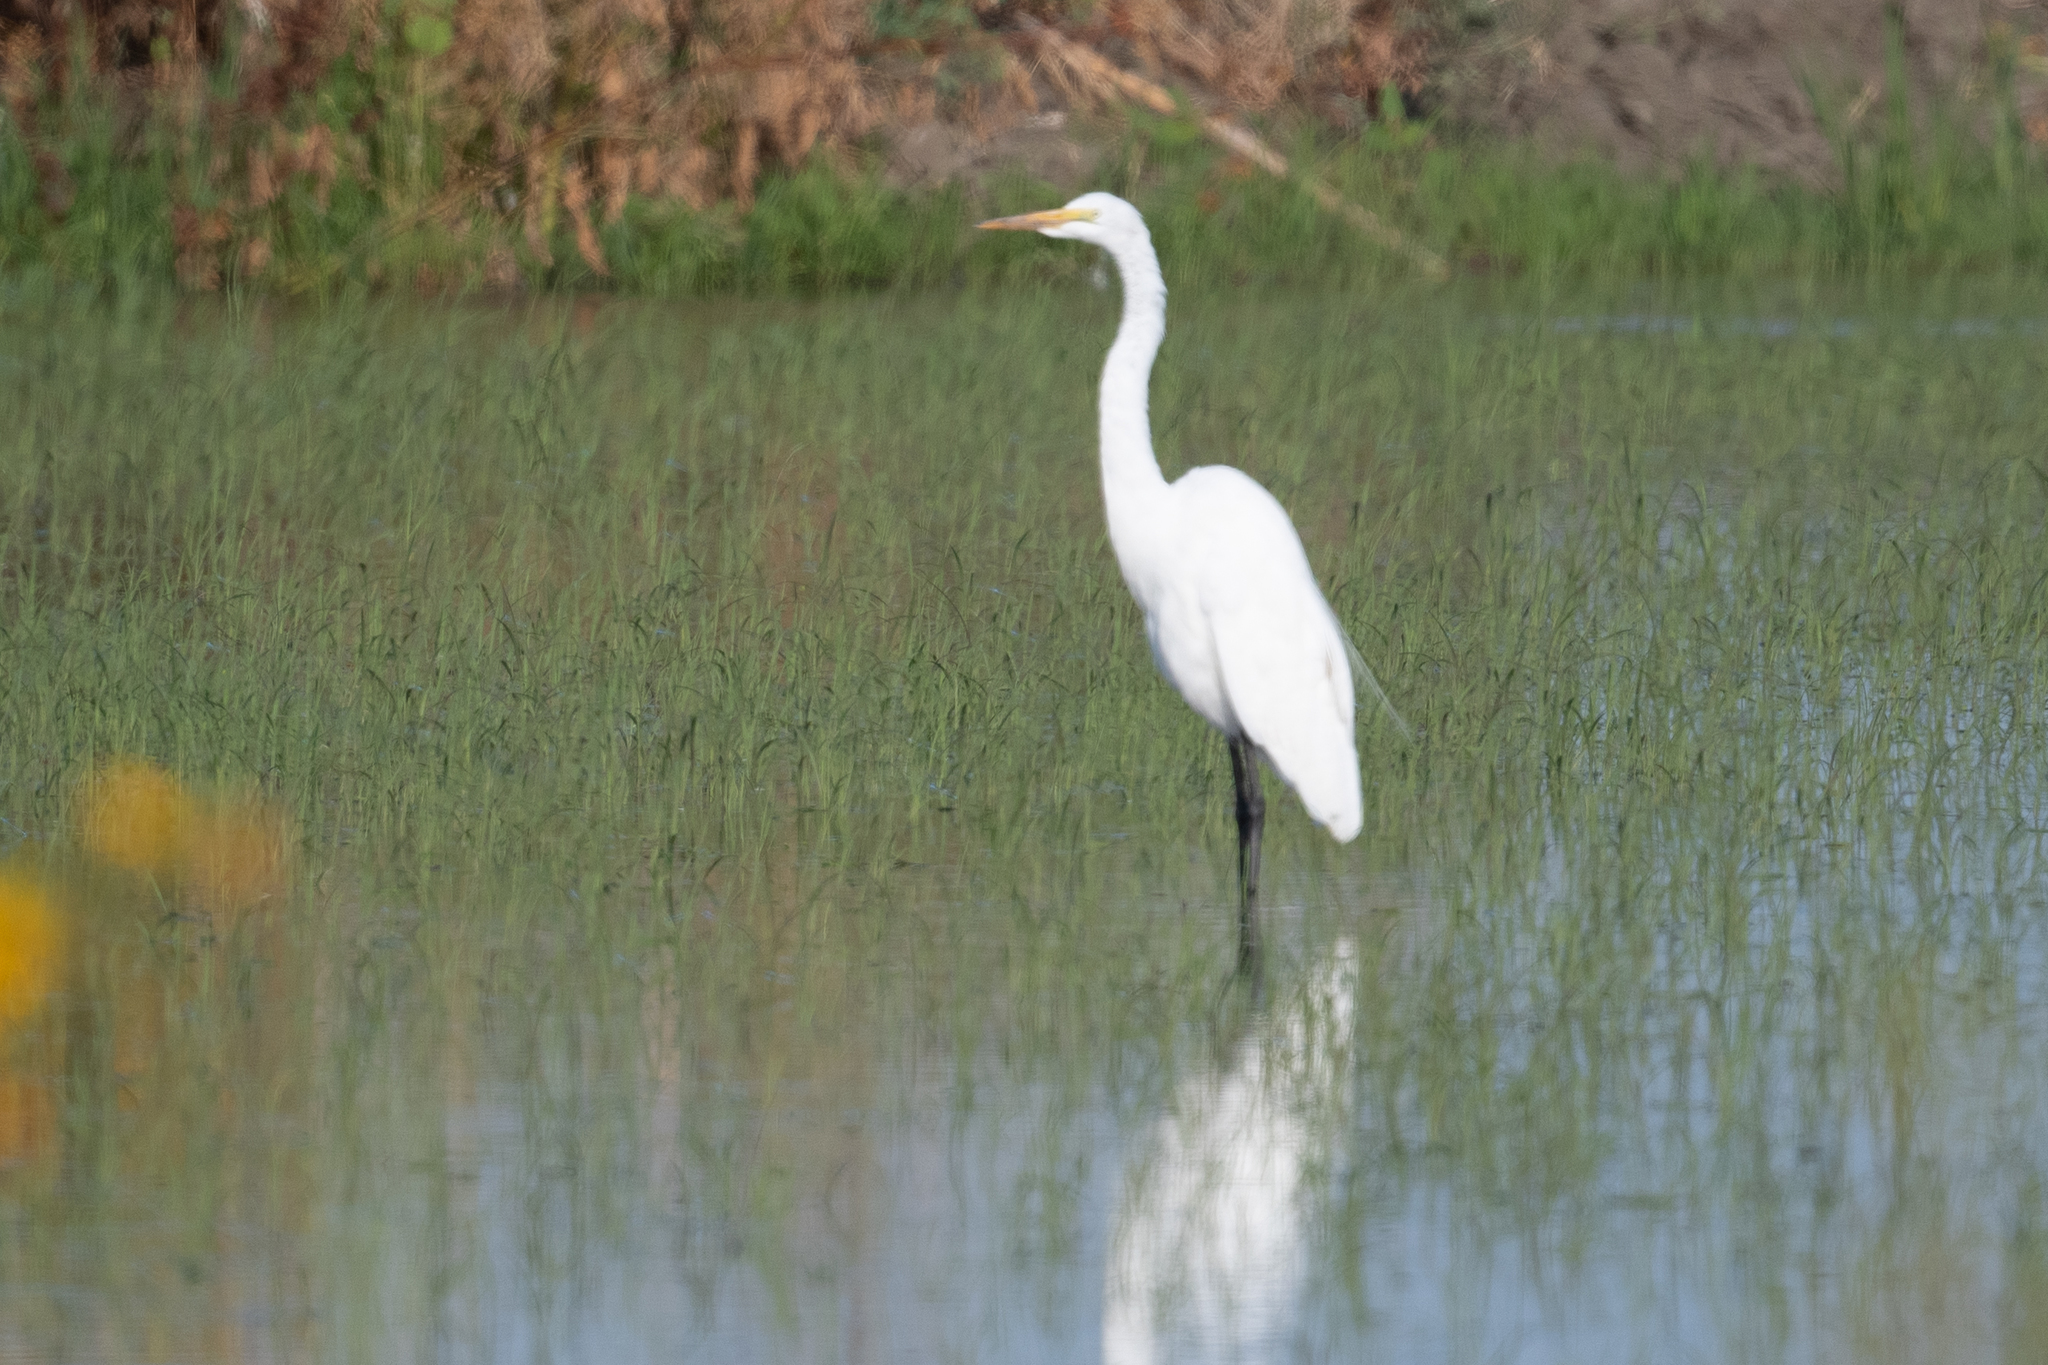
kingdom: Animalia
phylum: Chordata
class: Aves
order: Pelecaniformes
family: Ardeidae
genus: Ardea
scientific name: Ardea alba
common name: Great egret
